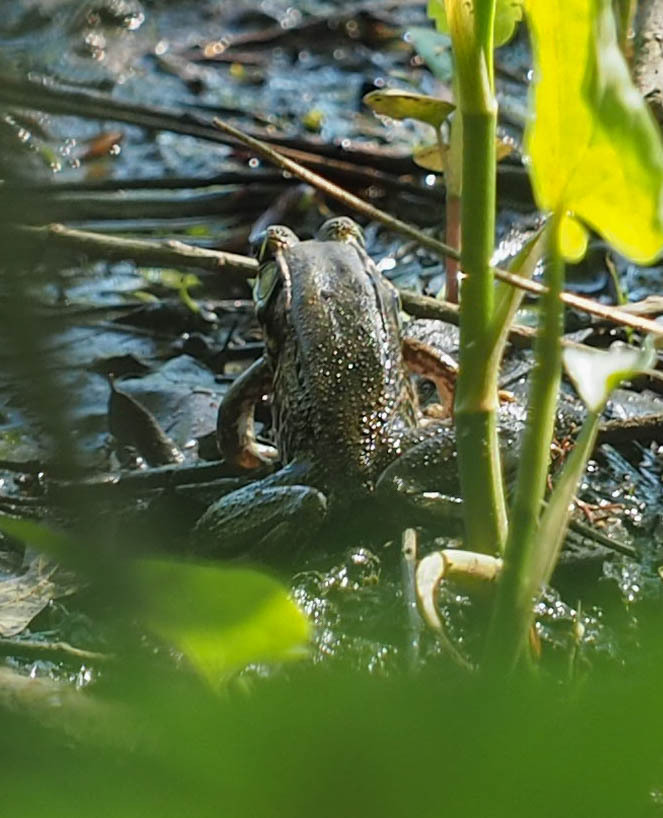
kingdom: Animalia
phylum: Chordata
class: Amphibia
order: Anura
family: Ranidae
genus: Lithobates
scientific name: Lithobates clamitans
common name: Green frog
